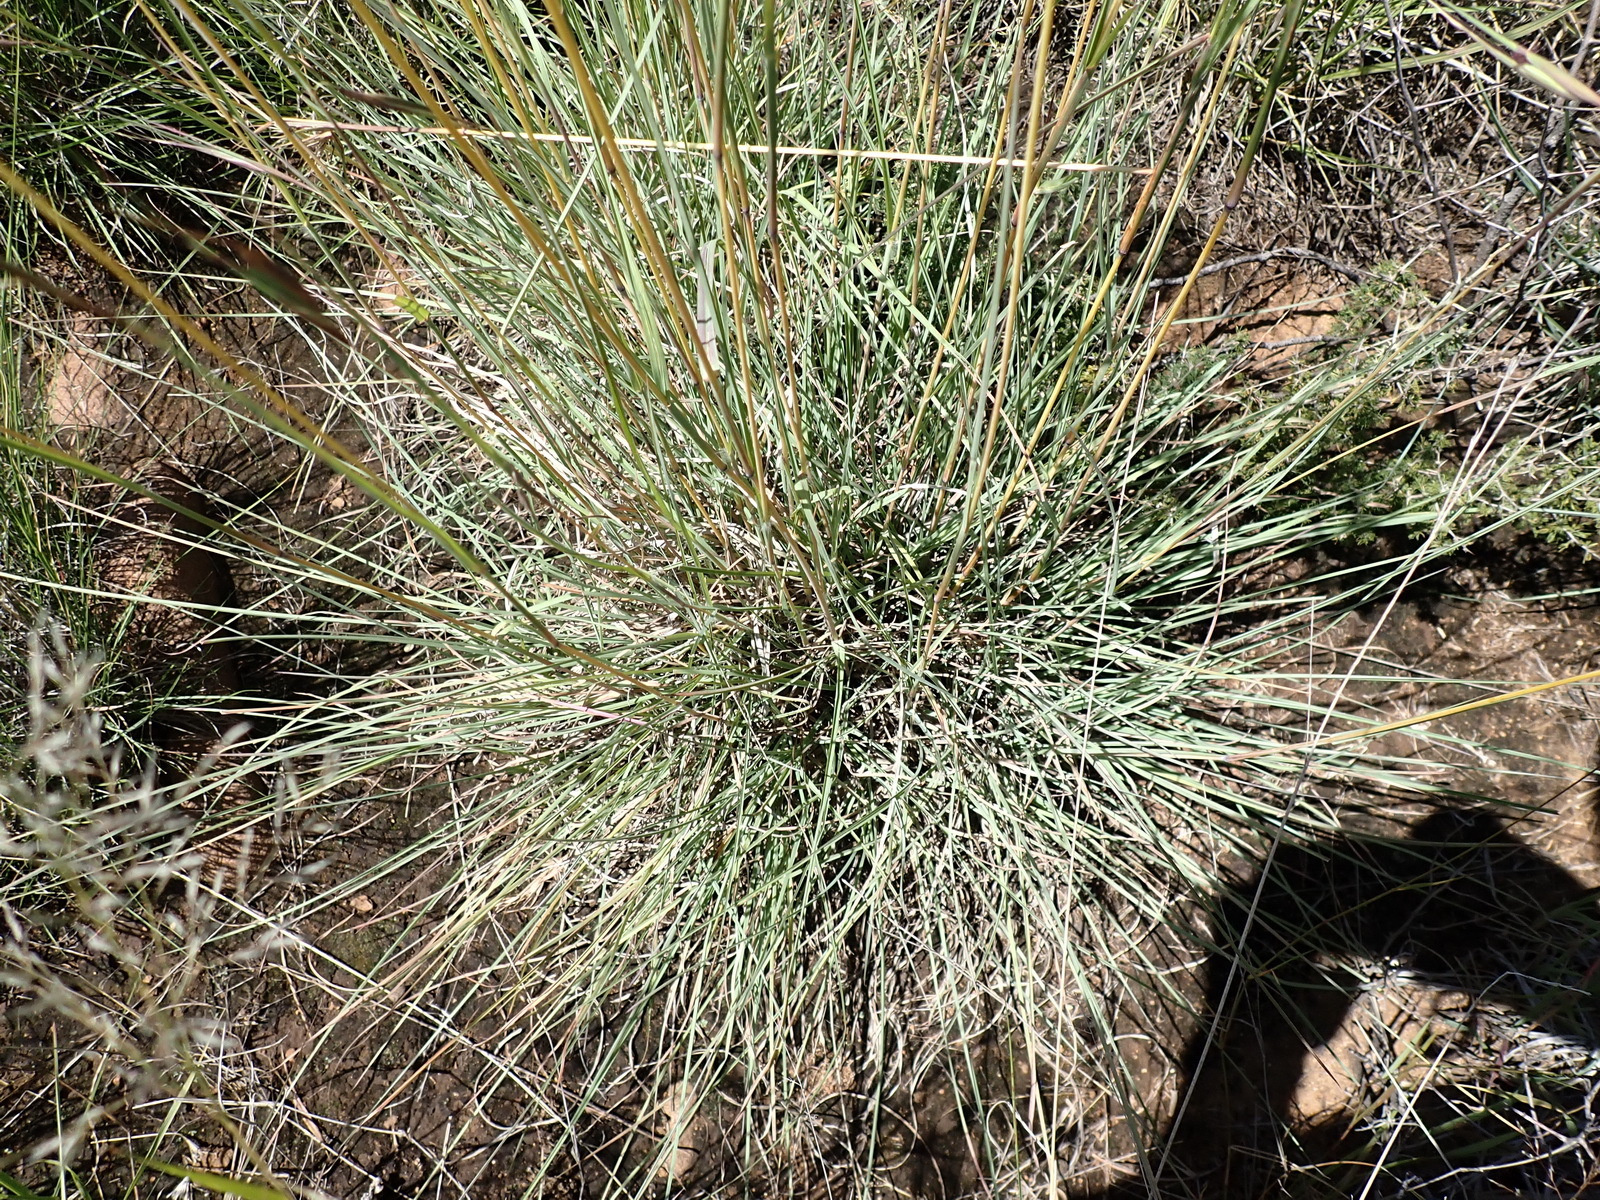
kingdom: Plantae
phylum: Tracheophyta
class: Liliopsida
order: Poales
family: Poaceae
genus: Themeda
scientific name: Themeda triandra
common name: Kangaroo grass
